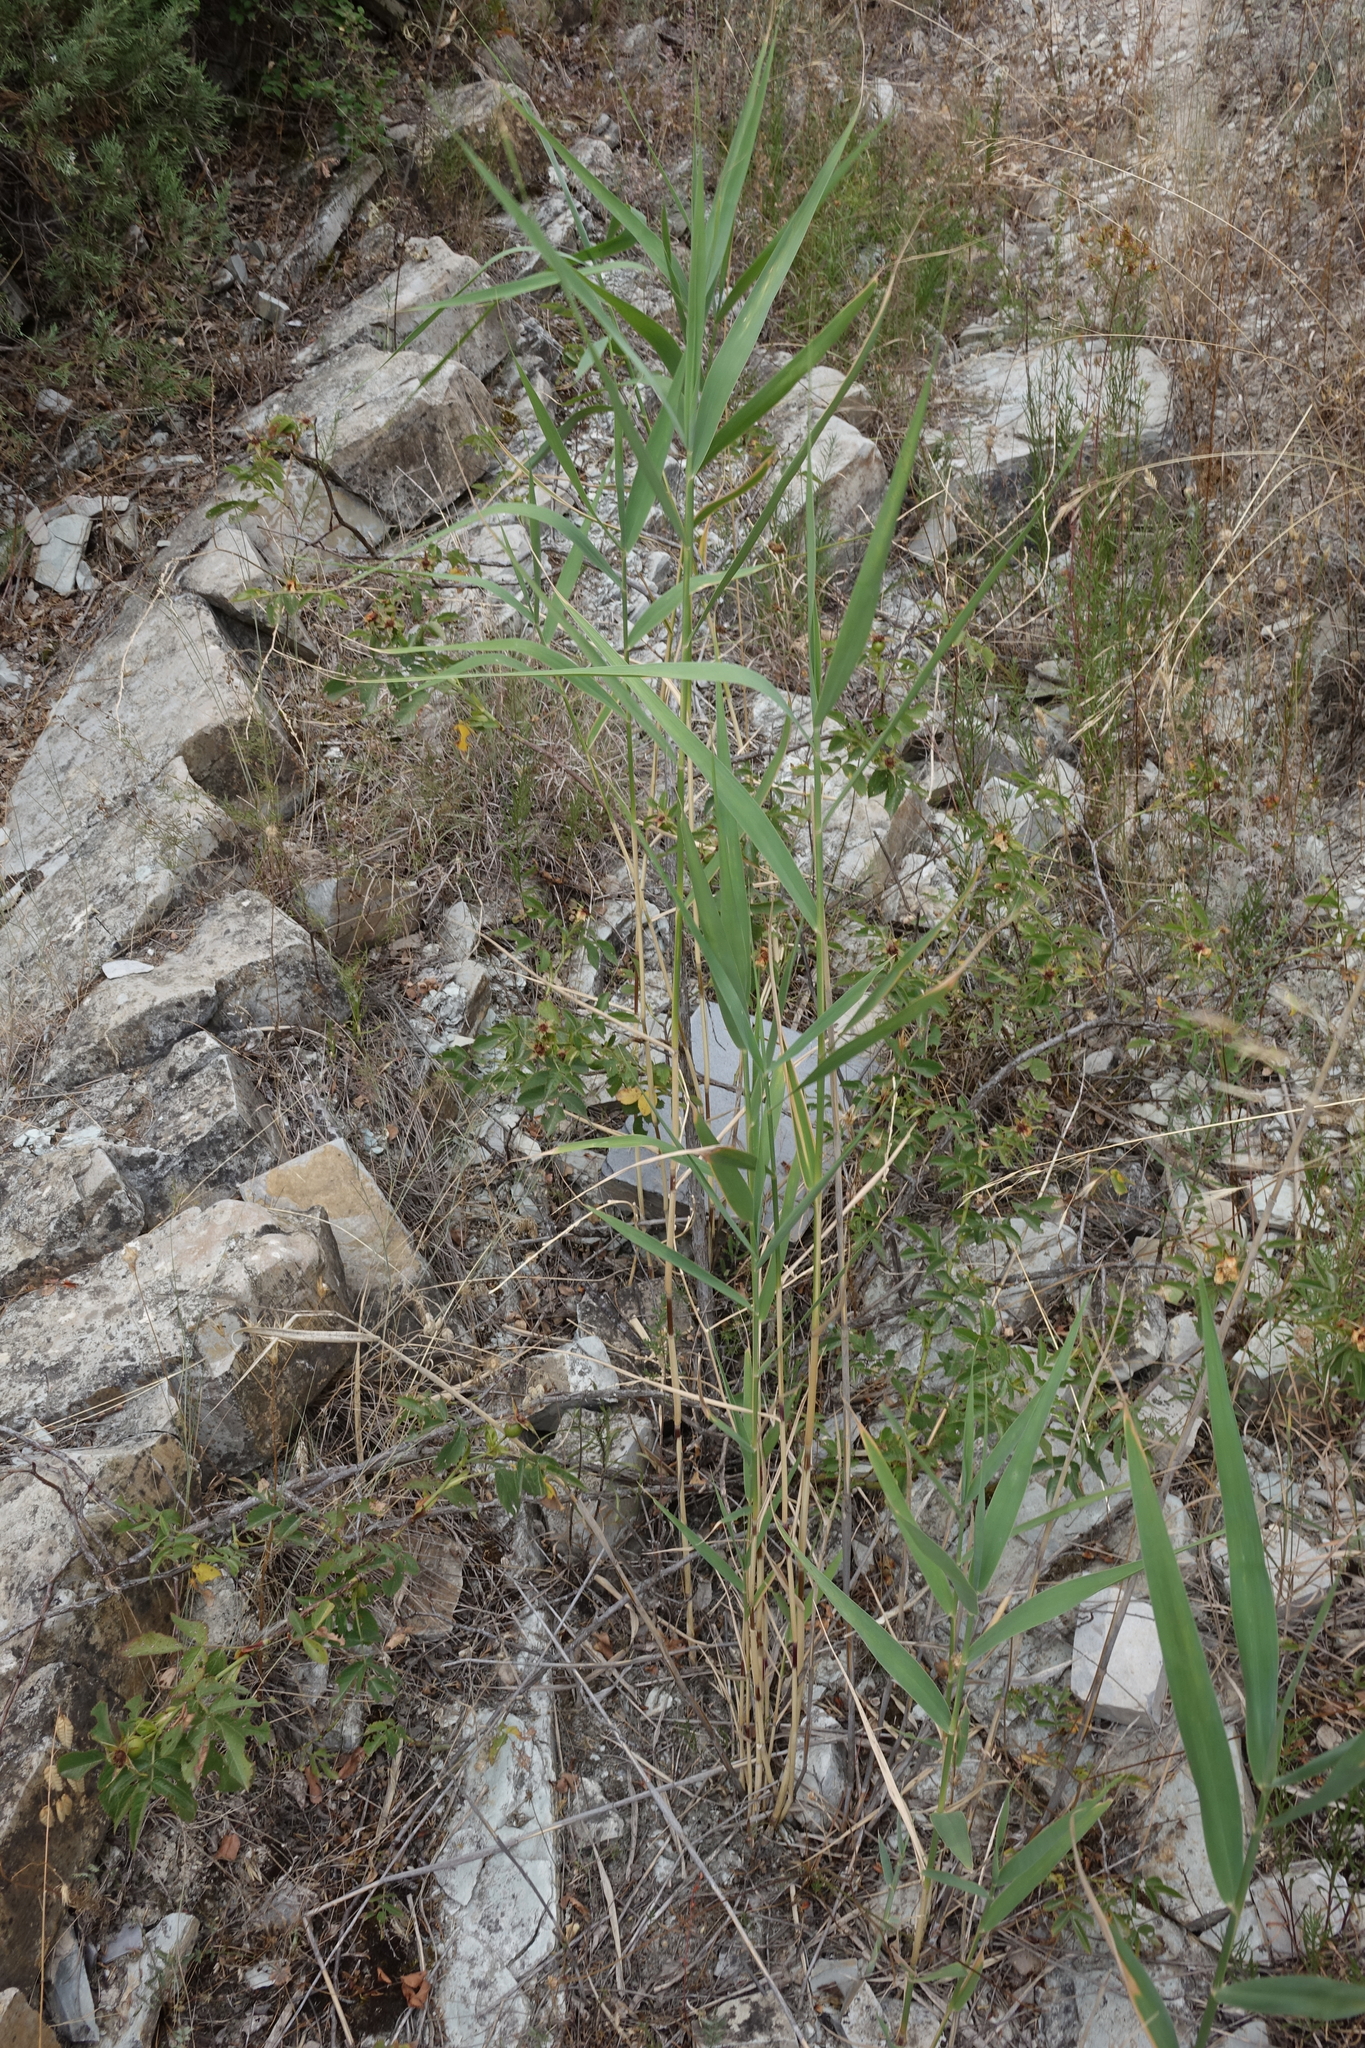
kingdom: Plantae
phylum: Tracheophyta
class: Liliopsida
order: Poales
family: Poaceae
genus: Phragmites
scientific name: Phragmites australis
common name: Common reed
